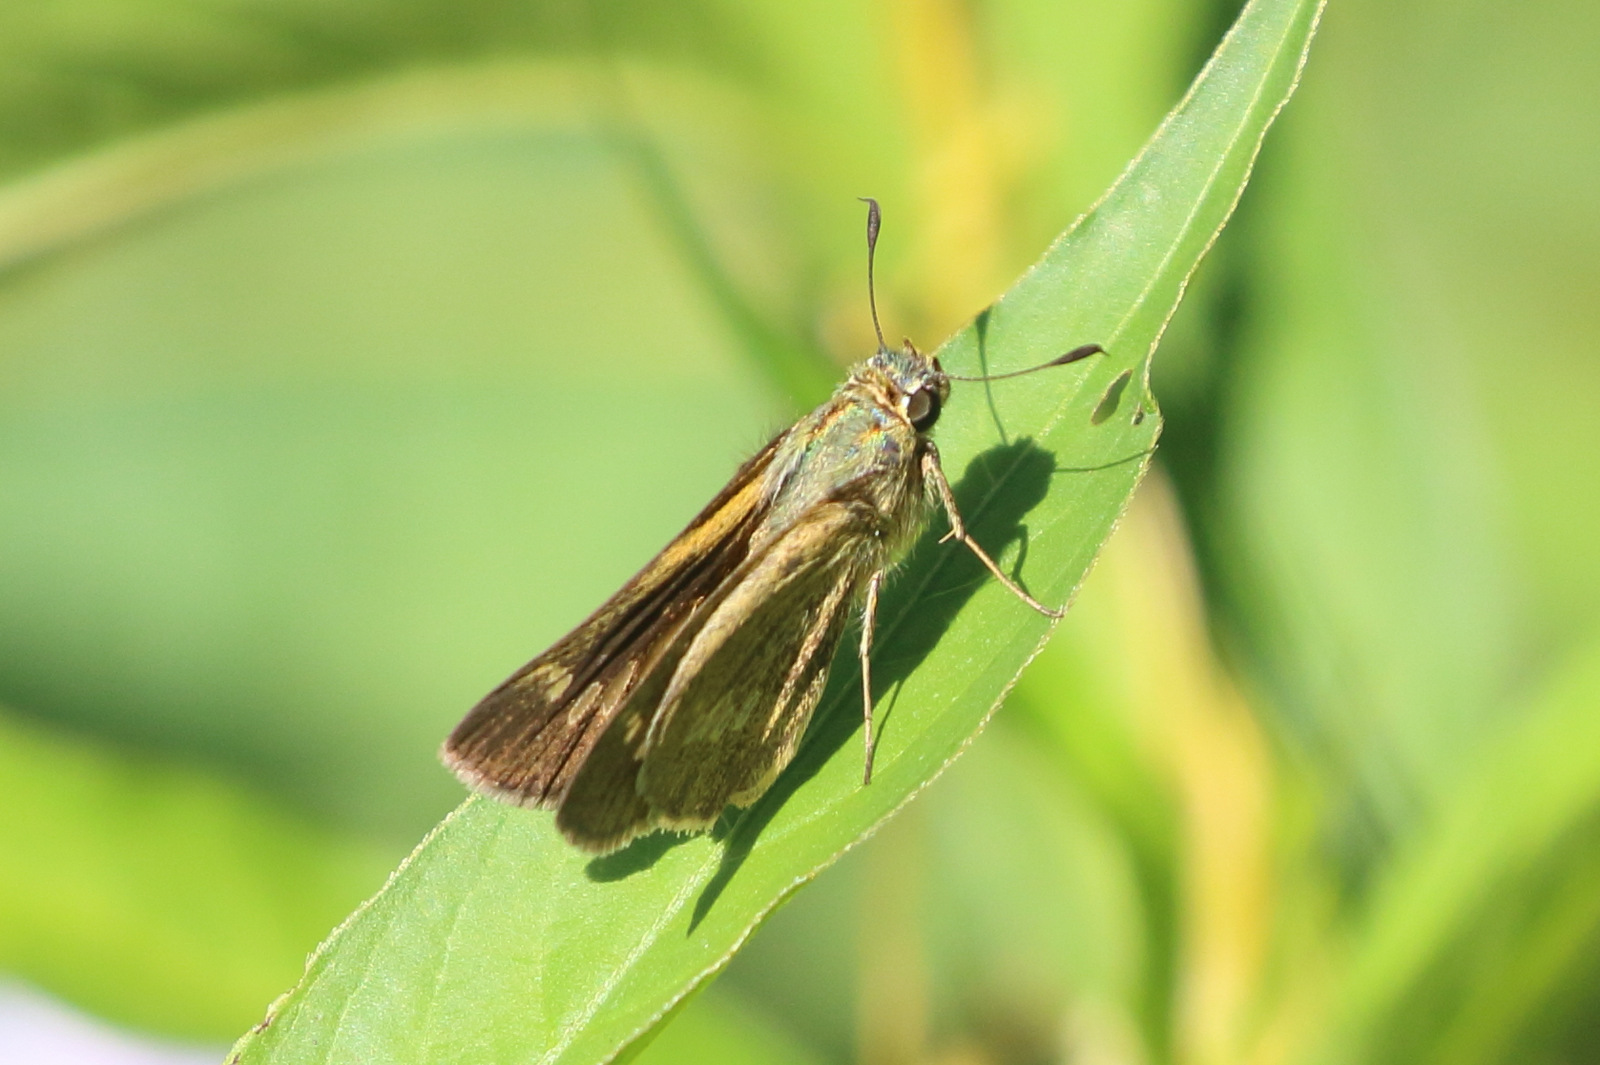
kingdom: Animalia
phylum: Arthropoda
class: Insecta
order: Lepidoptera
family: Hesperiidae
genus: Parnara
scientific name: Parnara amalia
